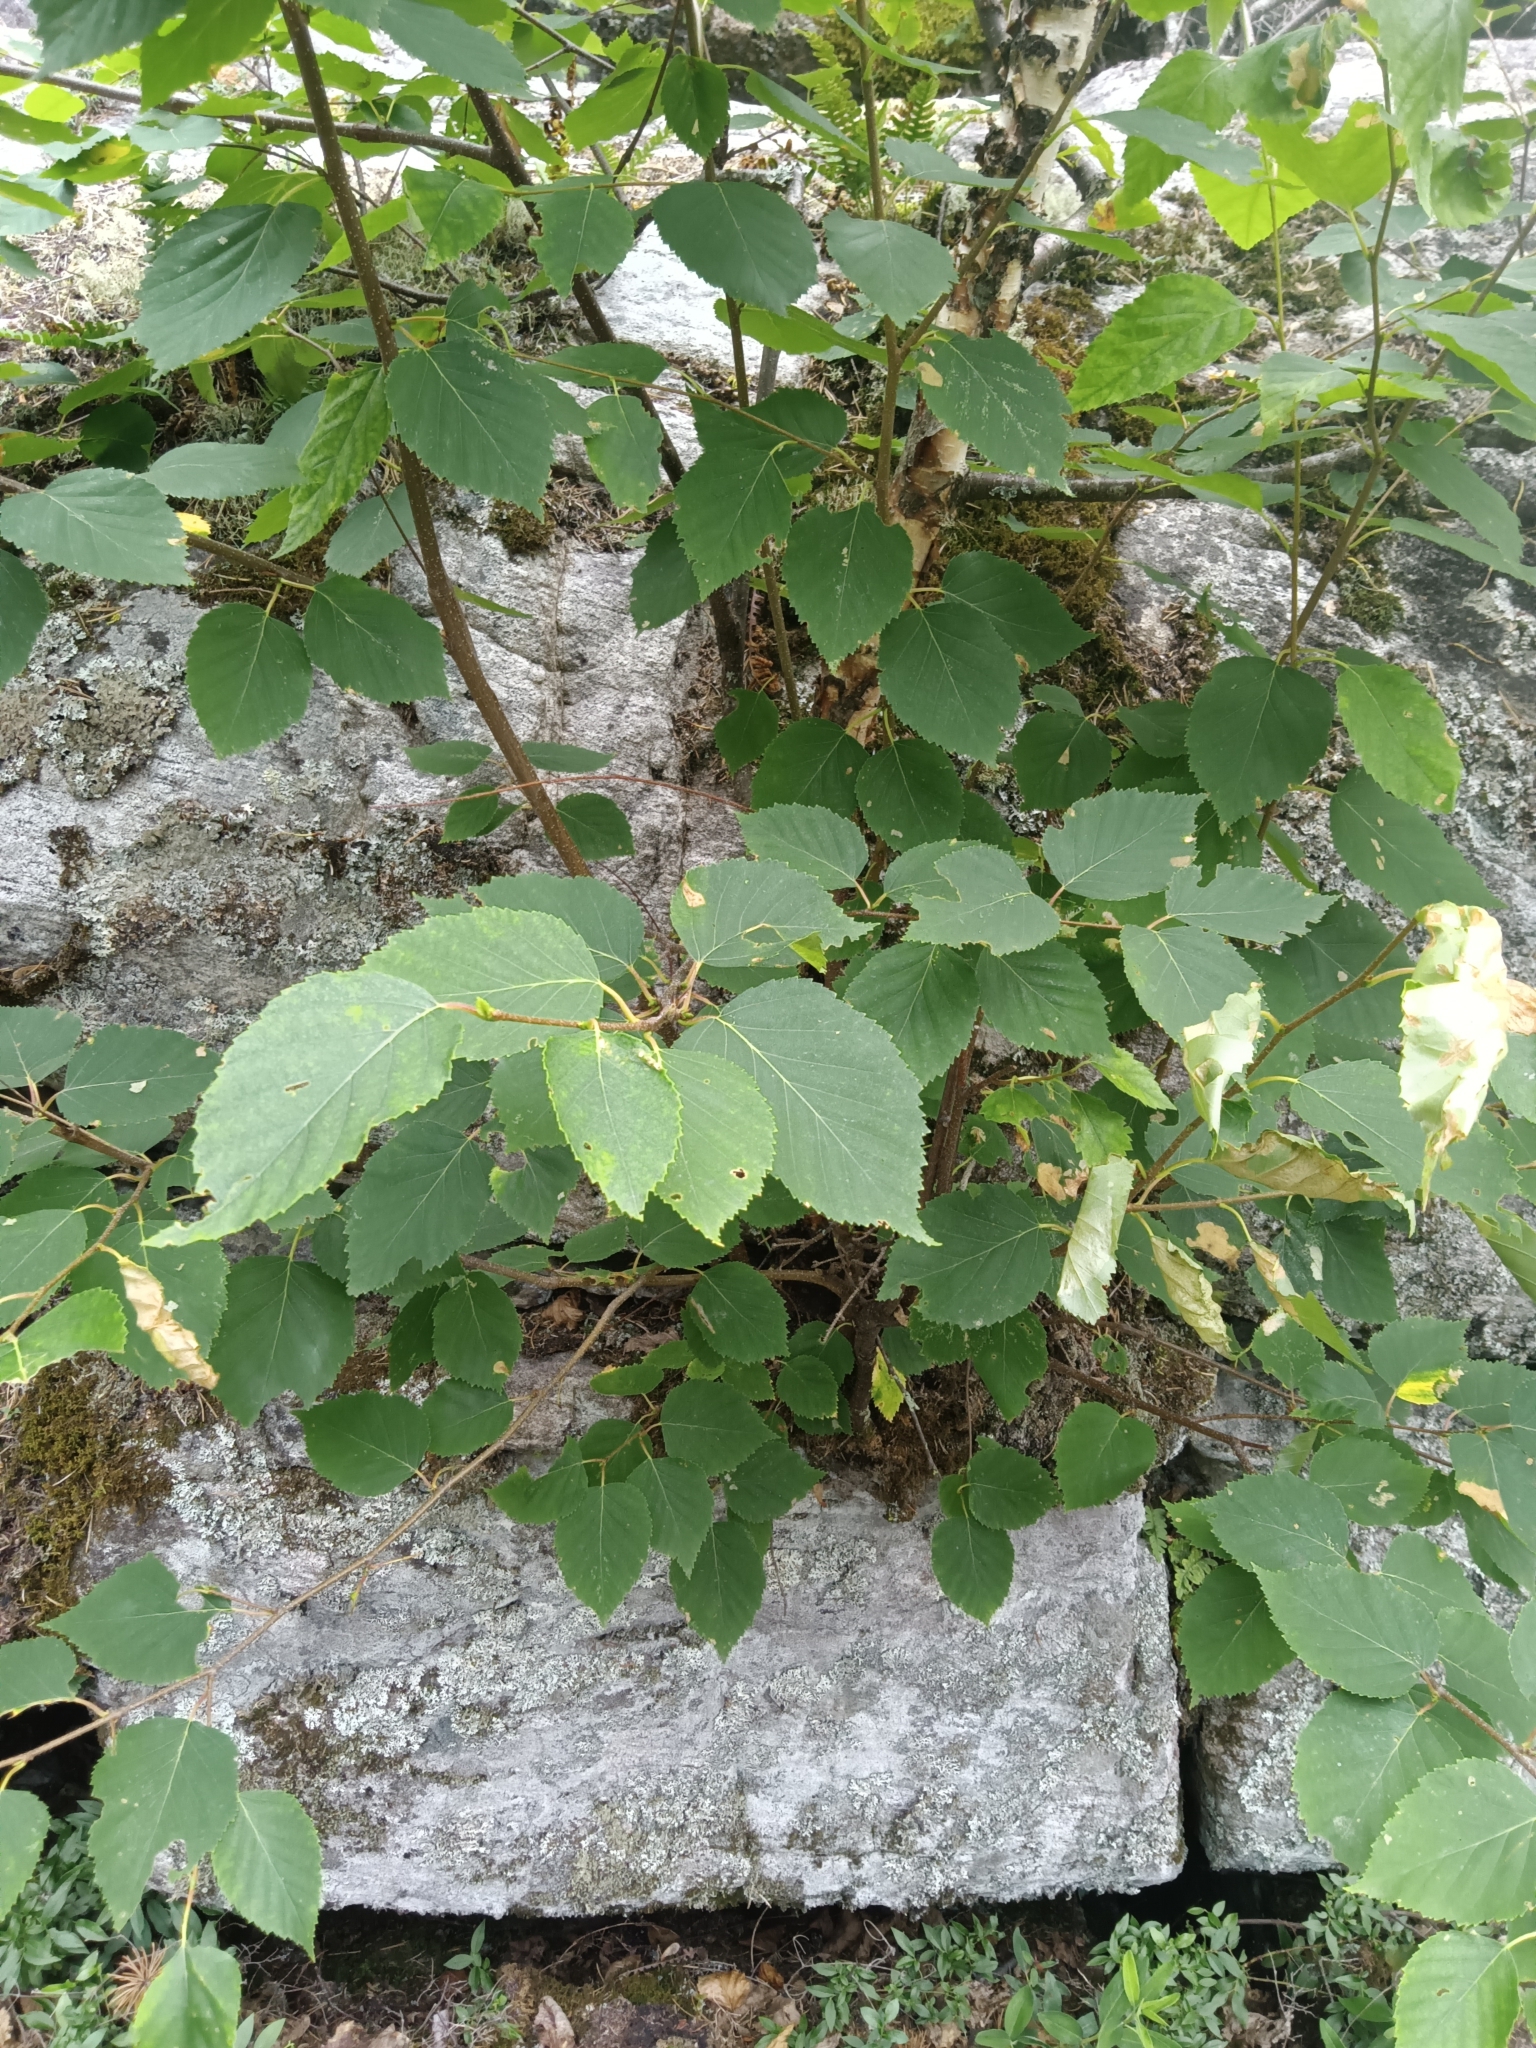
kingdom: Plantae
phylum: Tracheophyta
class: Magnoliopsida
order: Fagales
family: Betulaceae
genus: Betula
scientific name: Betula papyrifera
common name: Paper birch
